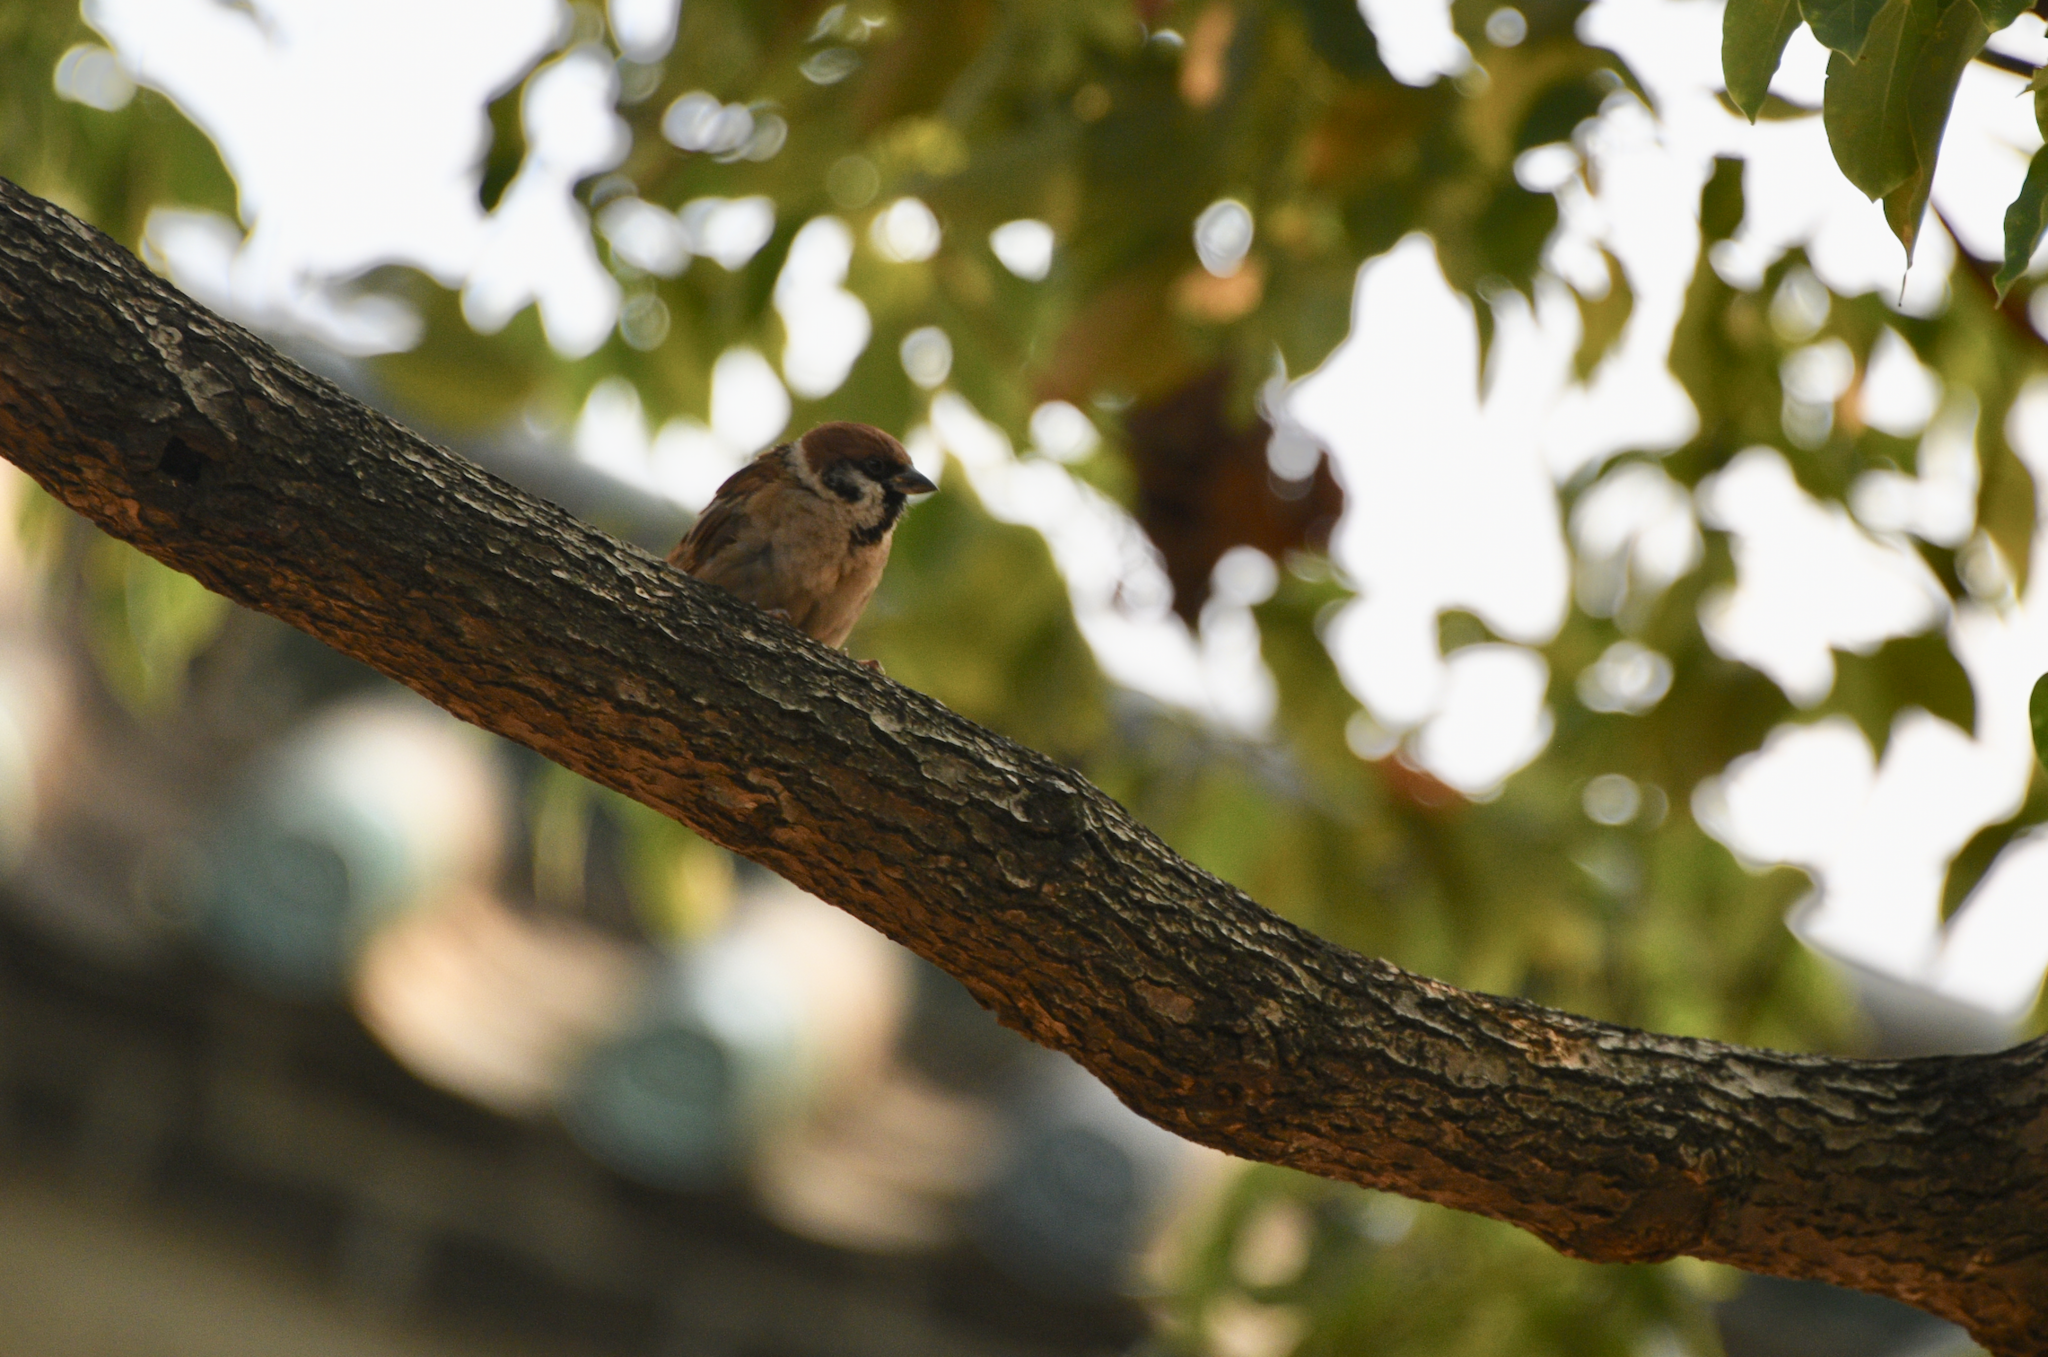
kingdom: Animalia
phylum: Chordata
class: Aves
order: Passeriformes
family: Passeridae
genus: Passer
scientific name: Passer montanus
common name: Eurasian tree sparrow
